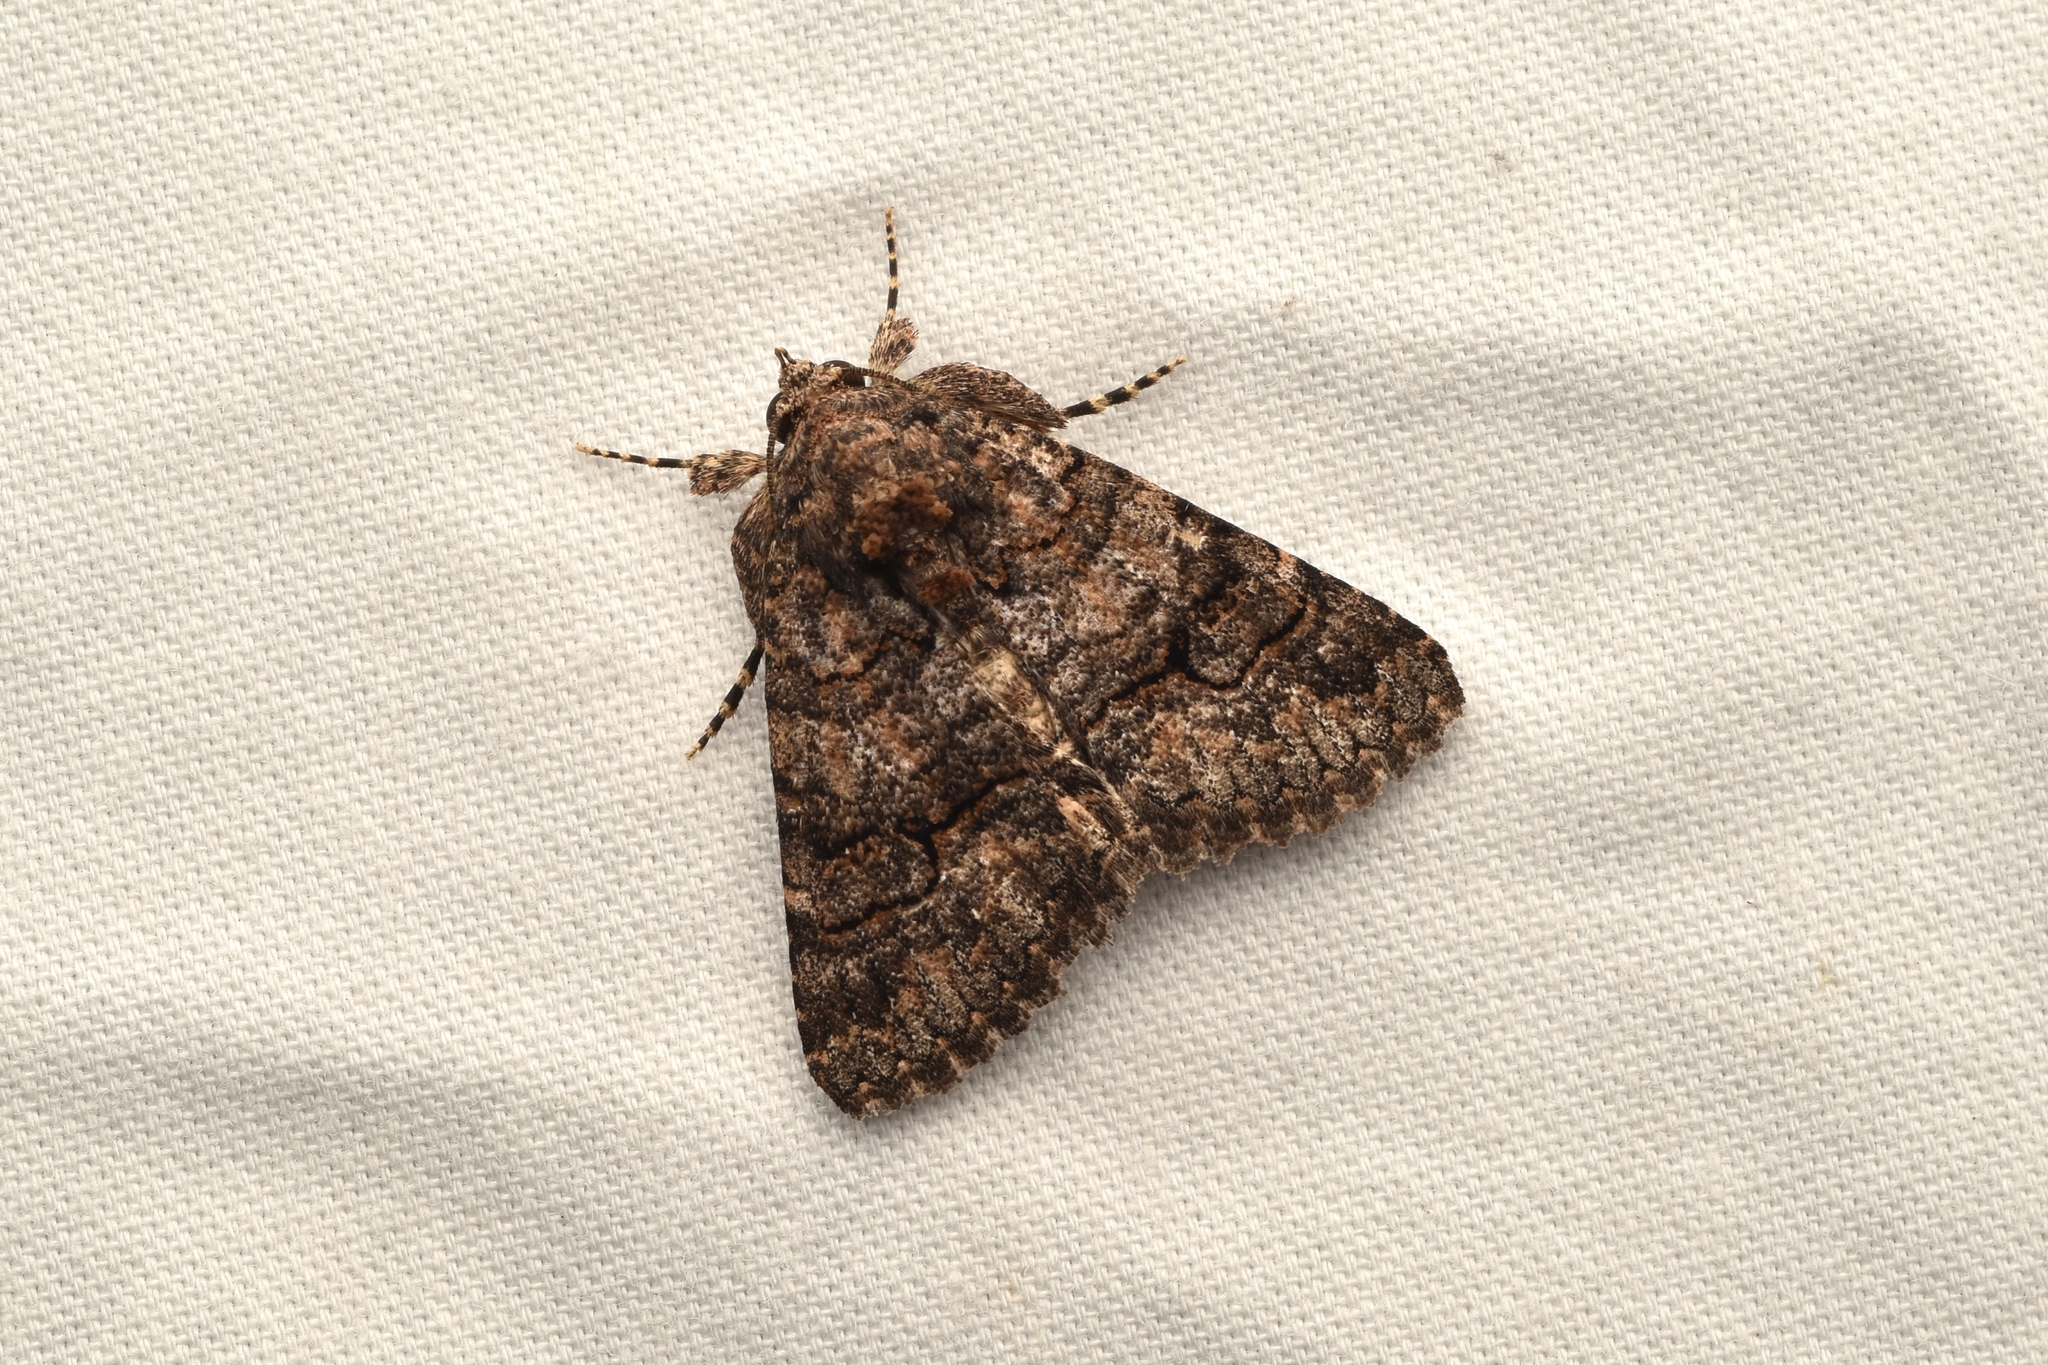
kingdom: Animalia
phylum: Arthropoda
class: Insecta
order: Lepidoptera
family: Erebidae
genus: Elousa
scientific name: Elousa mima
